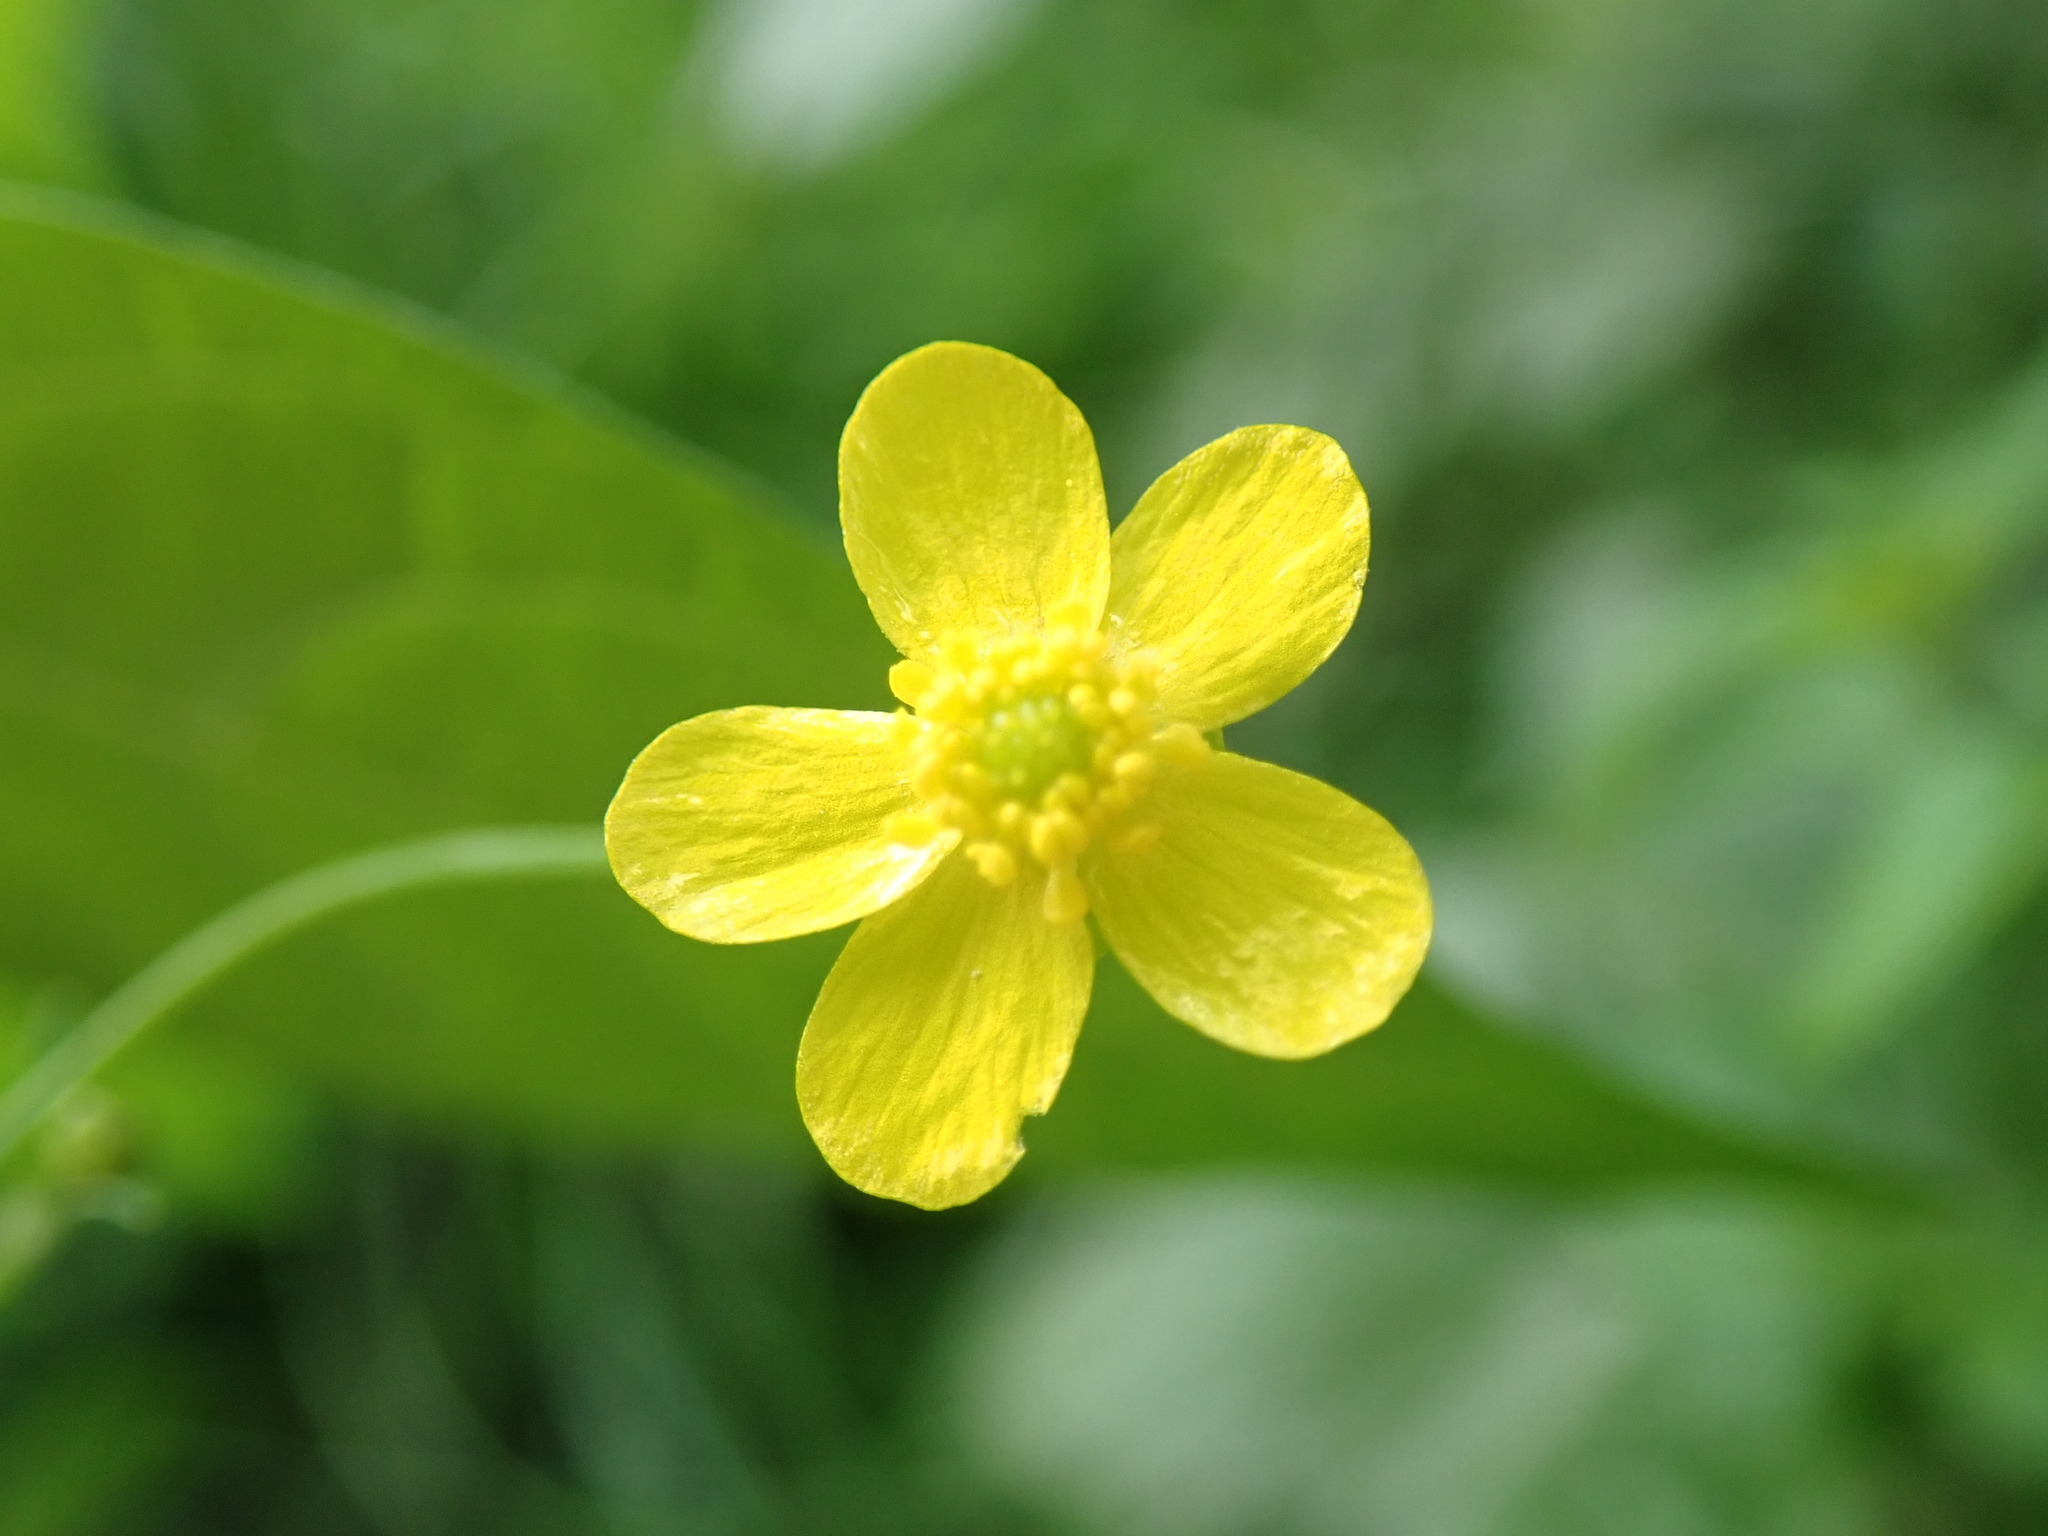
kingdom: Plantae
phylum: Tracheophyta
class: Magnoliopsida
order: Ranunculales
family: Ranunculaceae
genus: Ranunculus
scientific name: Ranunculus flammula
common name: Lesser spearwort
